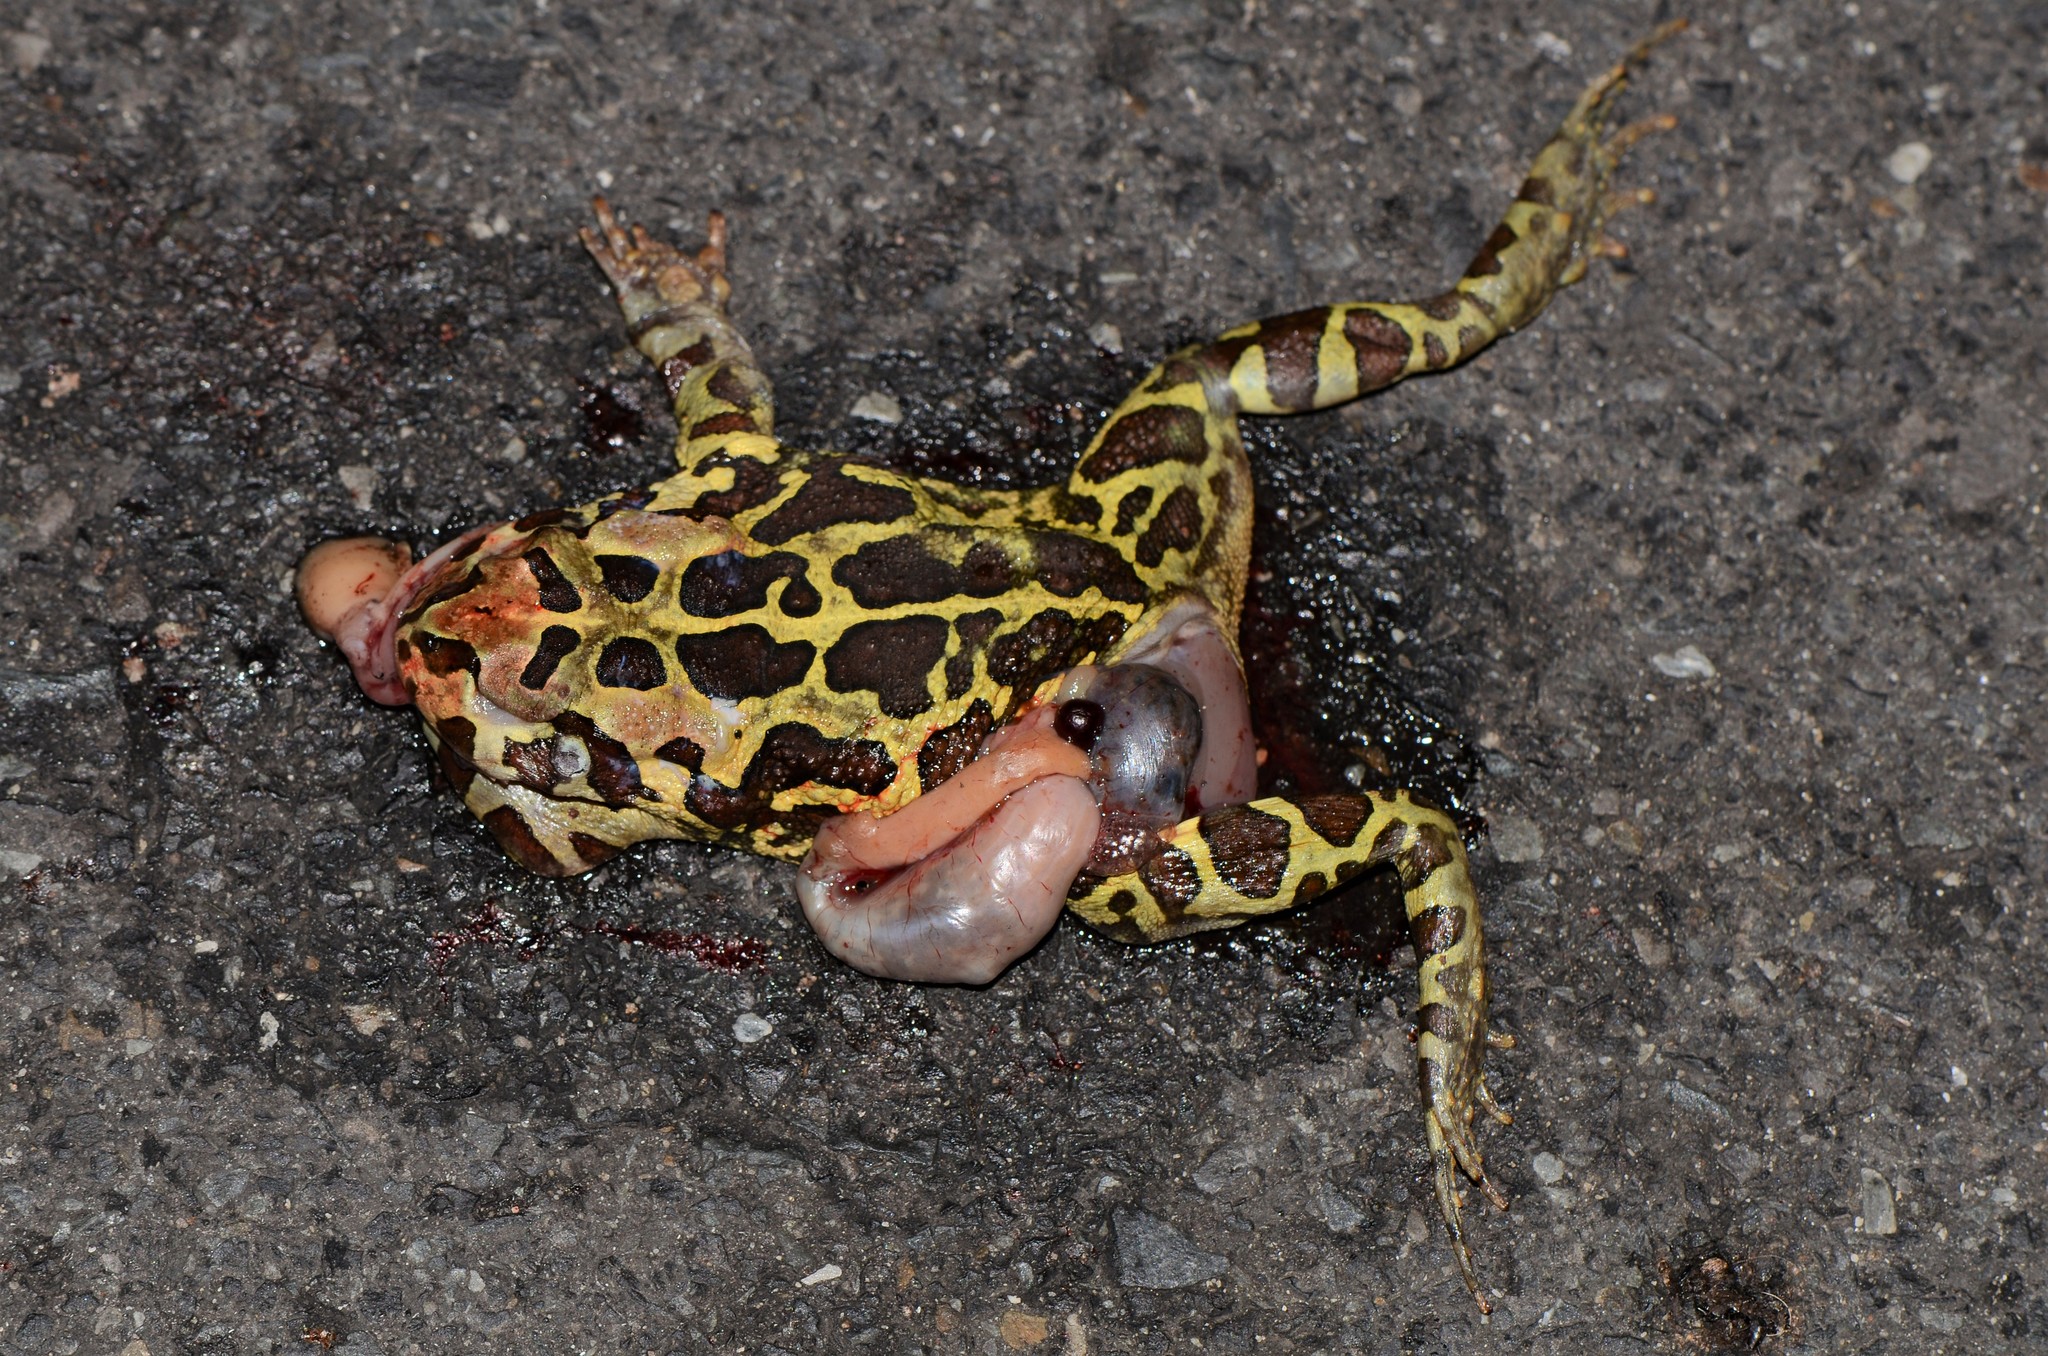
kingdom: Animalia
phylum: Chordata
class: Amphibia
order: Anura
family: Bufonidae
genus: Sclerophrys
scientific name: Sclerophrys pantherina
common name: Panther toad
